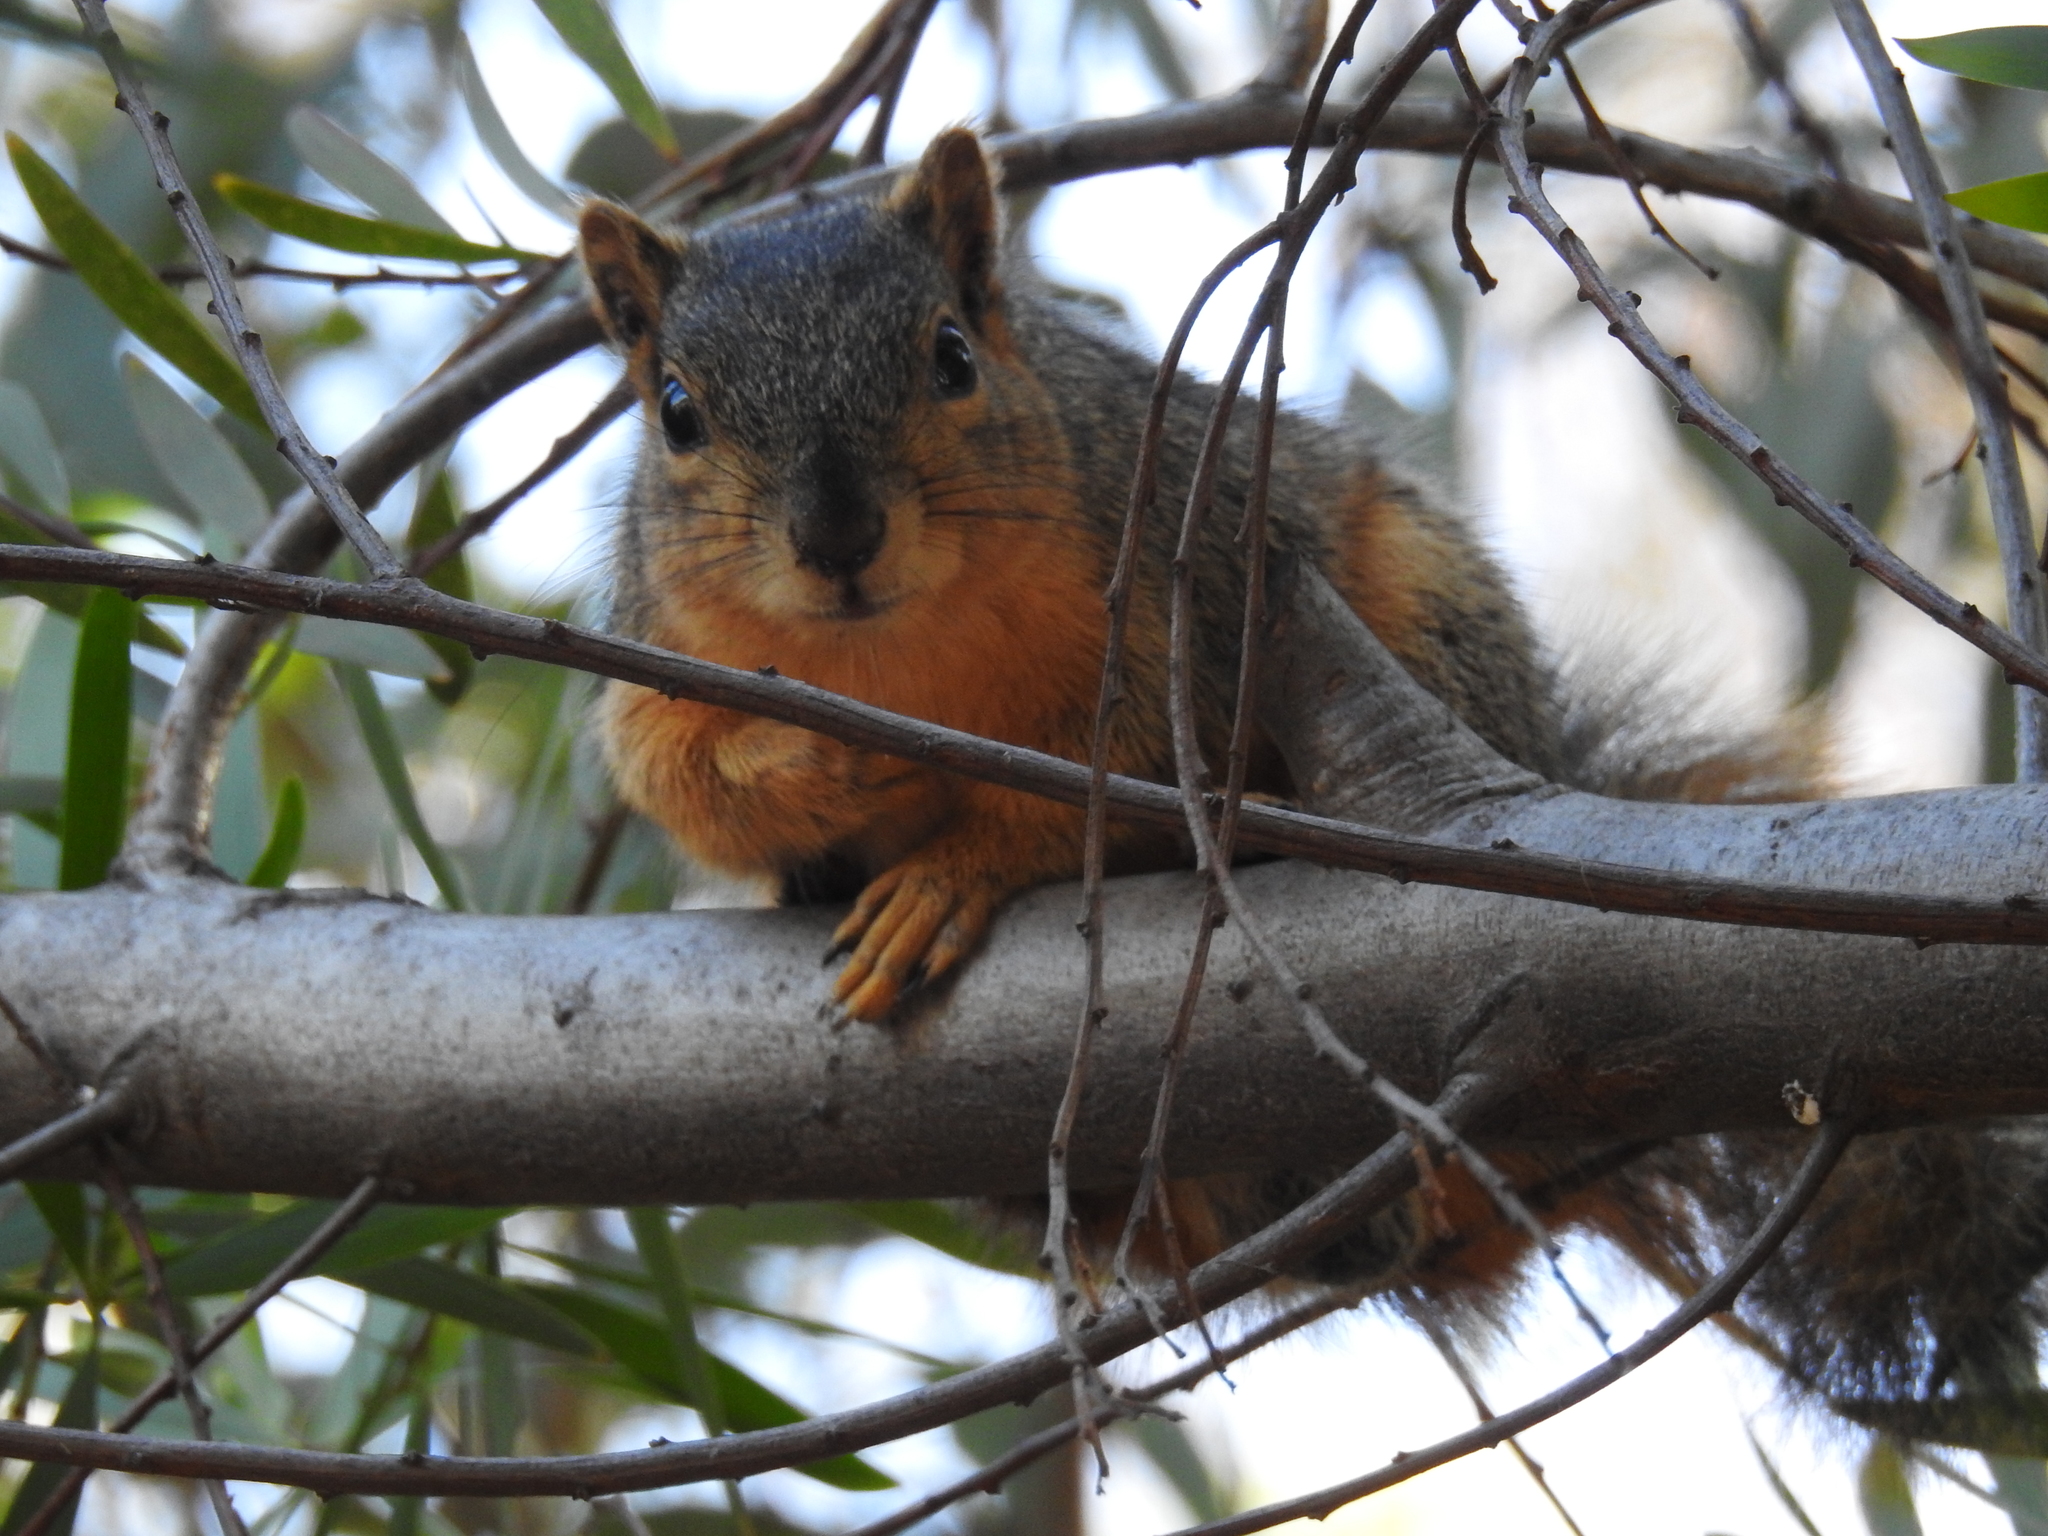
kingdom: Animalia
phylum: Chordata
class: Mammalia
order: Rodentia
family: Sciuridae
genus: Sciurus
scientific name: Sciurus niger
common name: Fox squirrel
